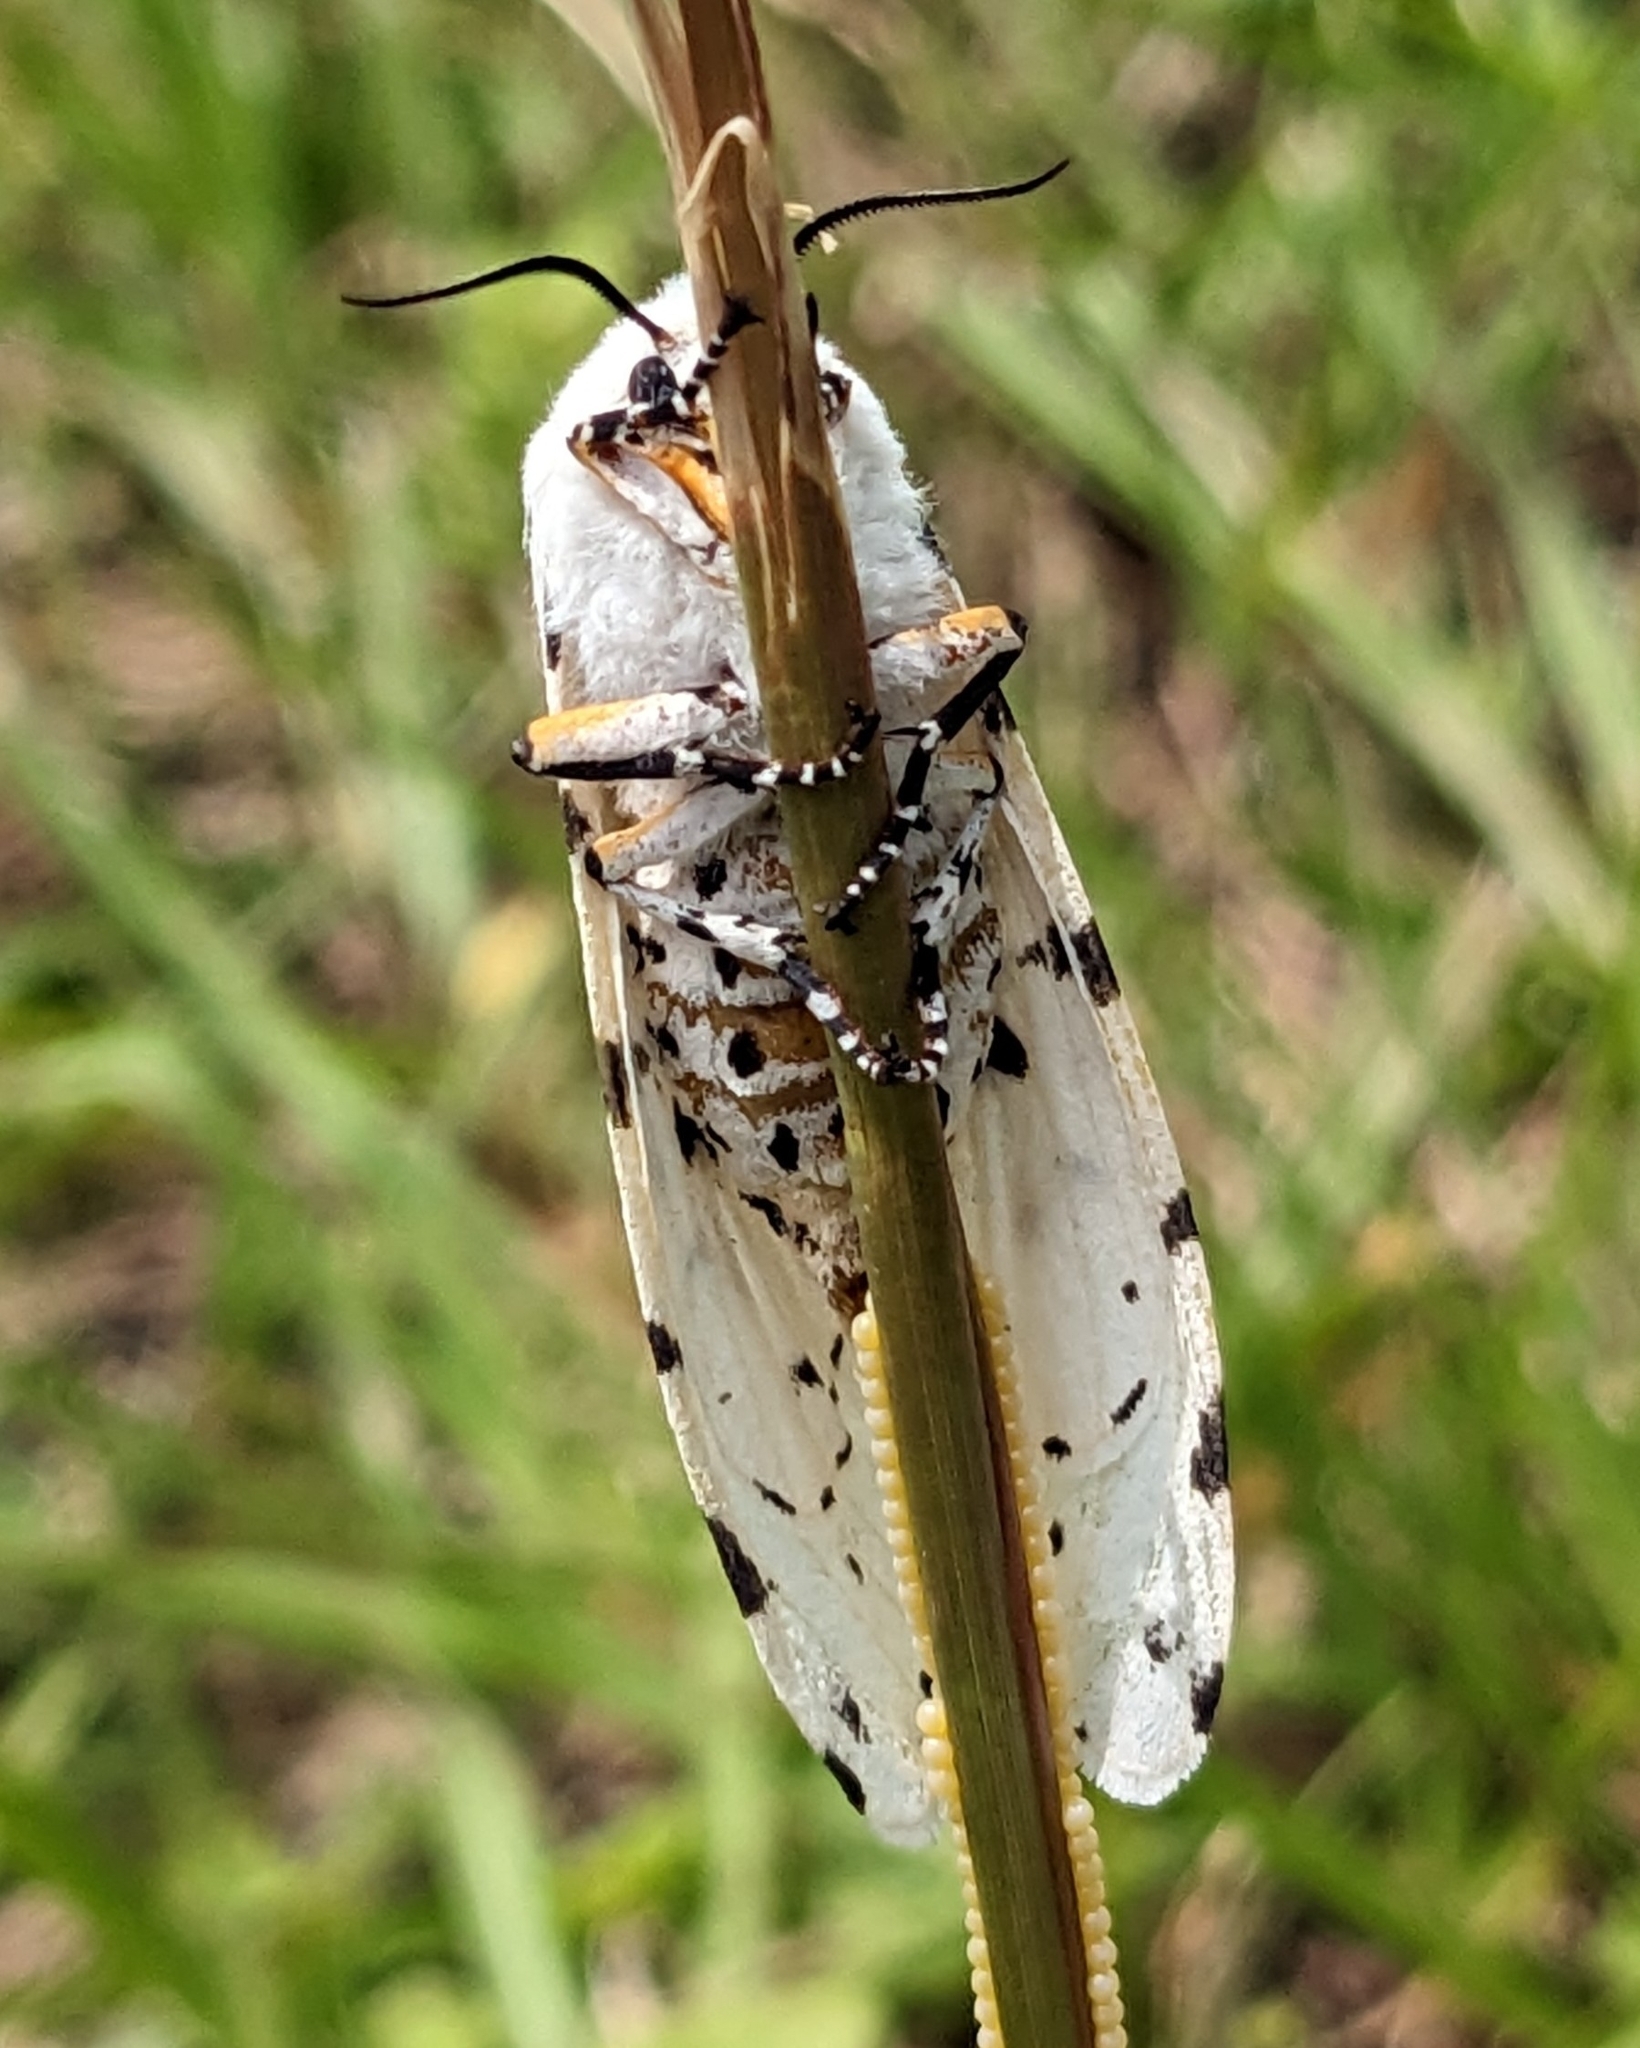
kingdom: Animalia
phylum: Arthropoda
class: Insecta
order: Lepidoptera
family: Erebidae
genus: Estigmene
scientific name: Estigmene acrea
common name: Salt marsh moth
